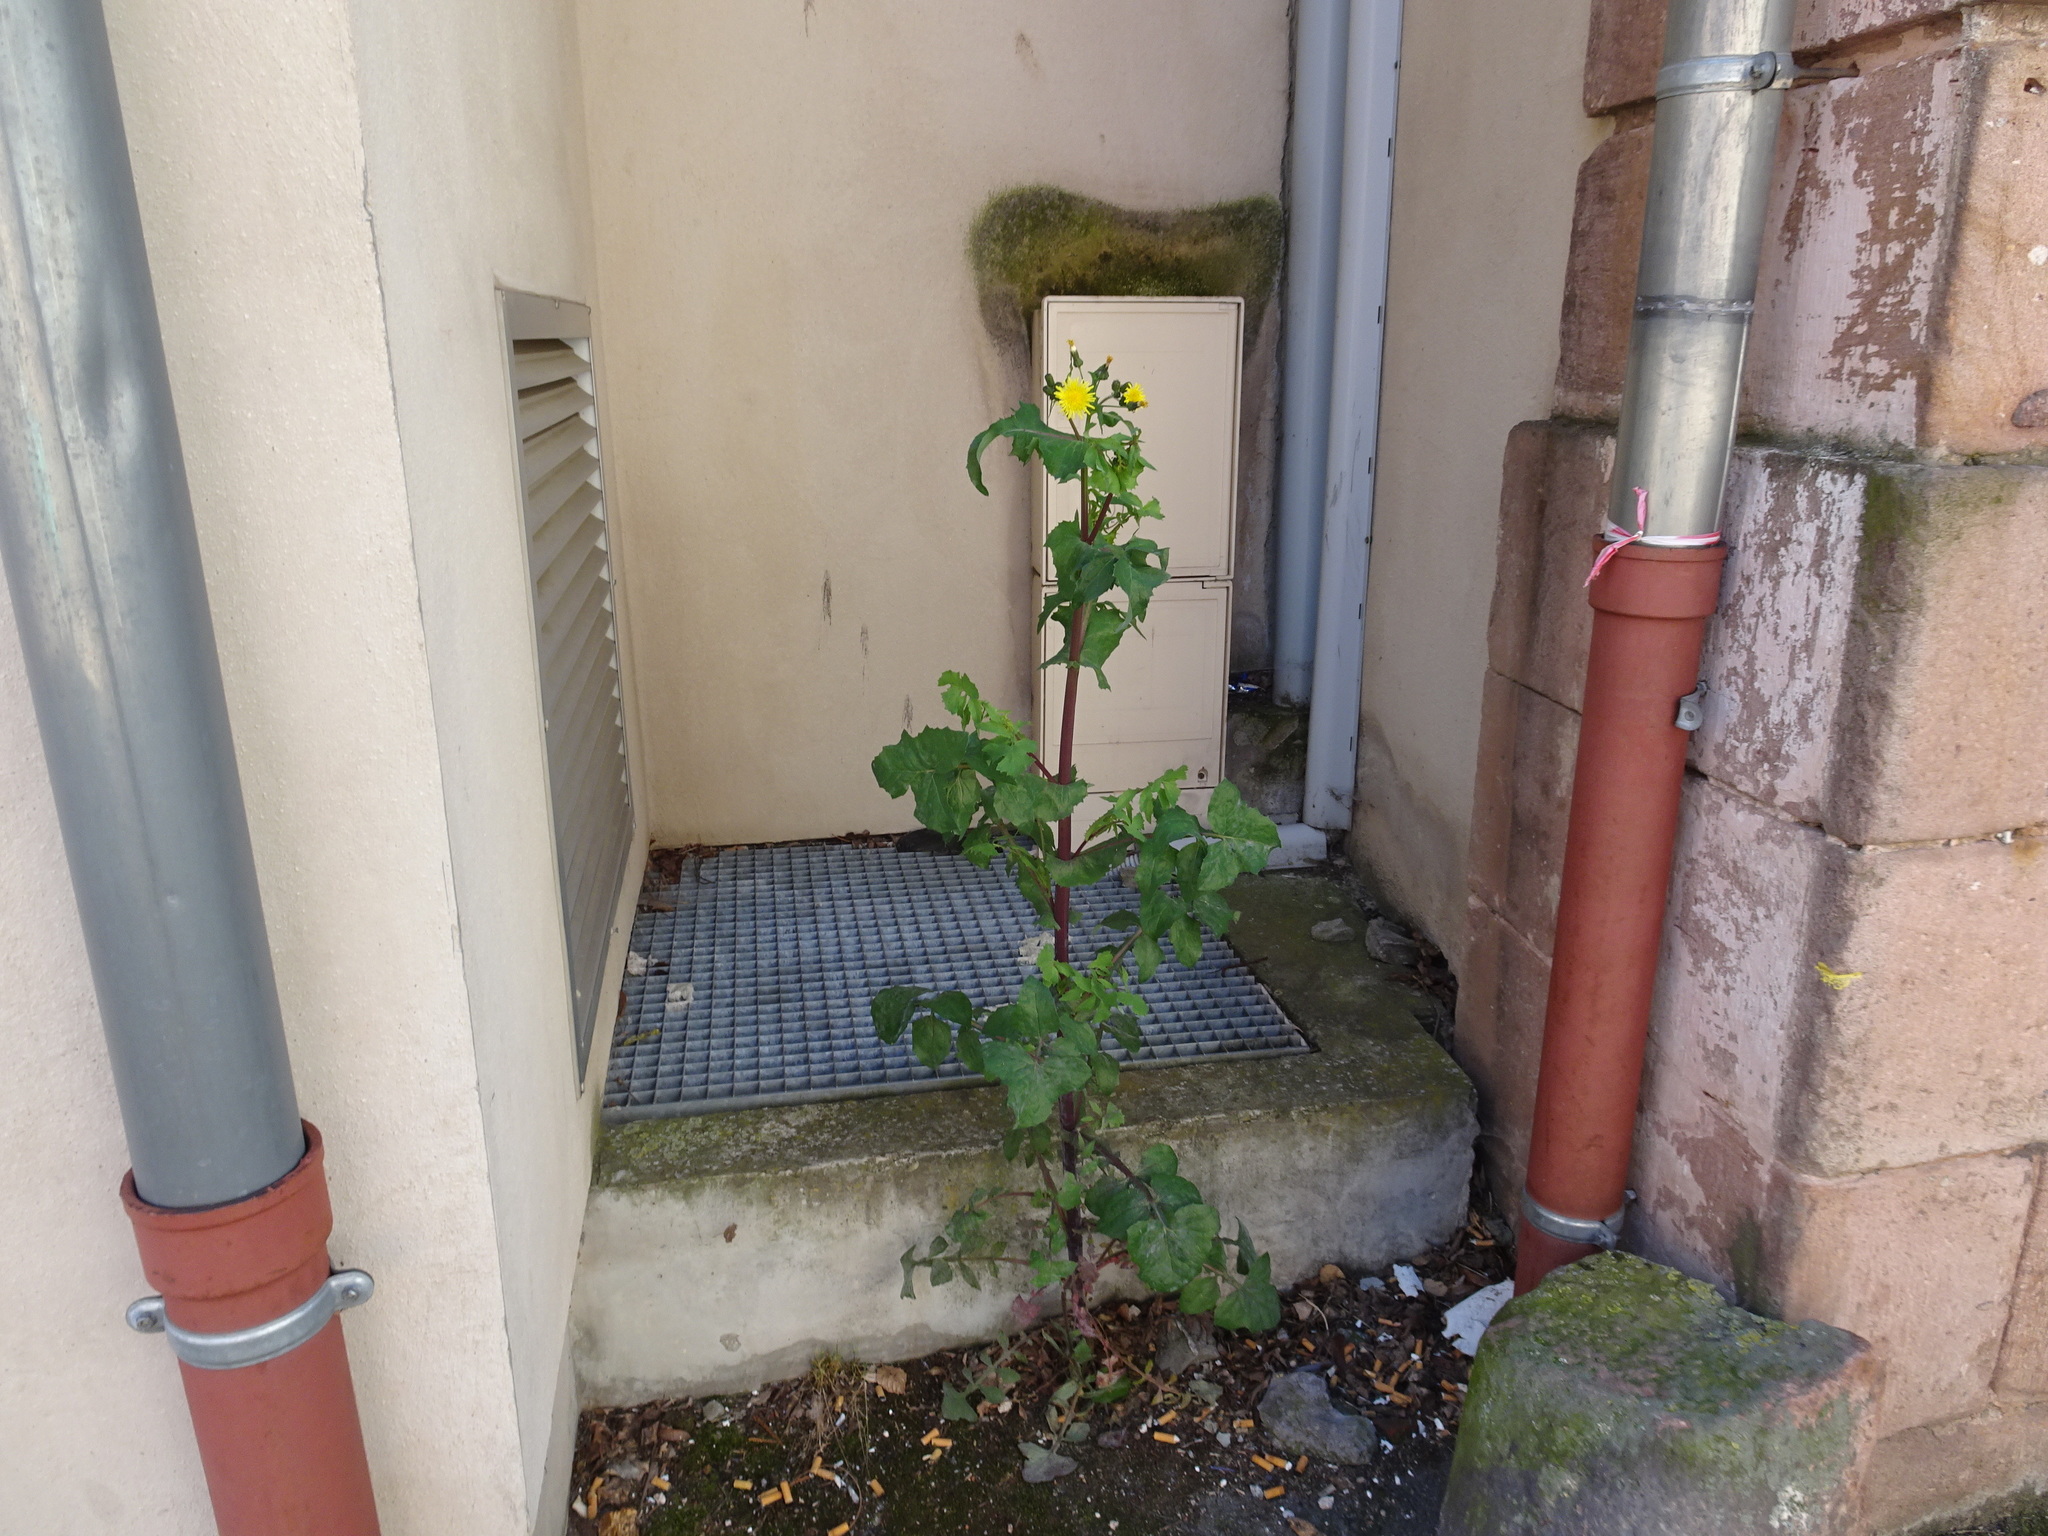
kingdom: Plantae
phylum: Tracheophyta
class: Magnoliopsida
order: Asterales
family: Asteraceae
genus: Sonchus
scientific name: Sonchus oleraceus
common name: Common sowthistle
